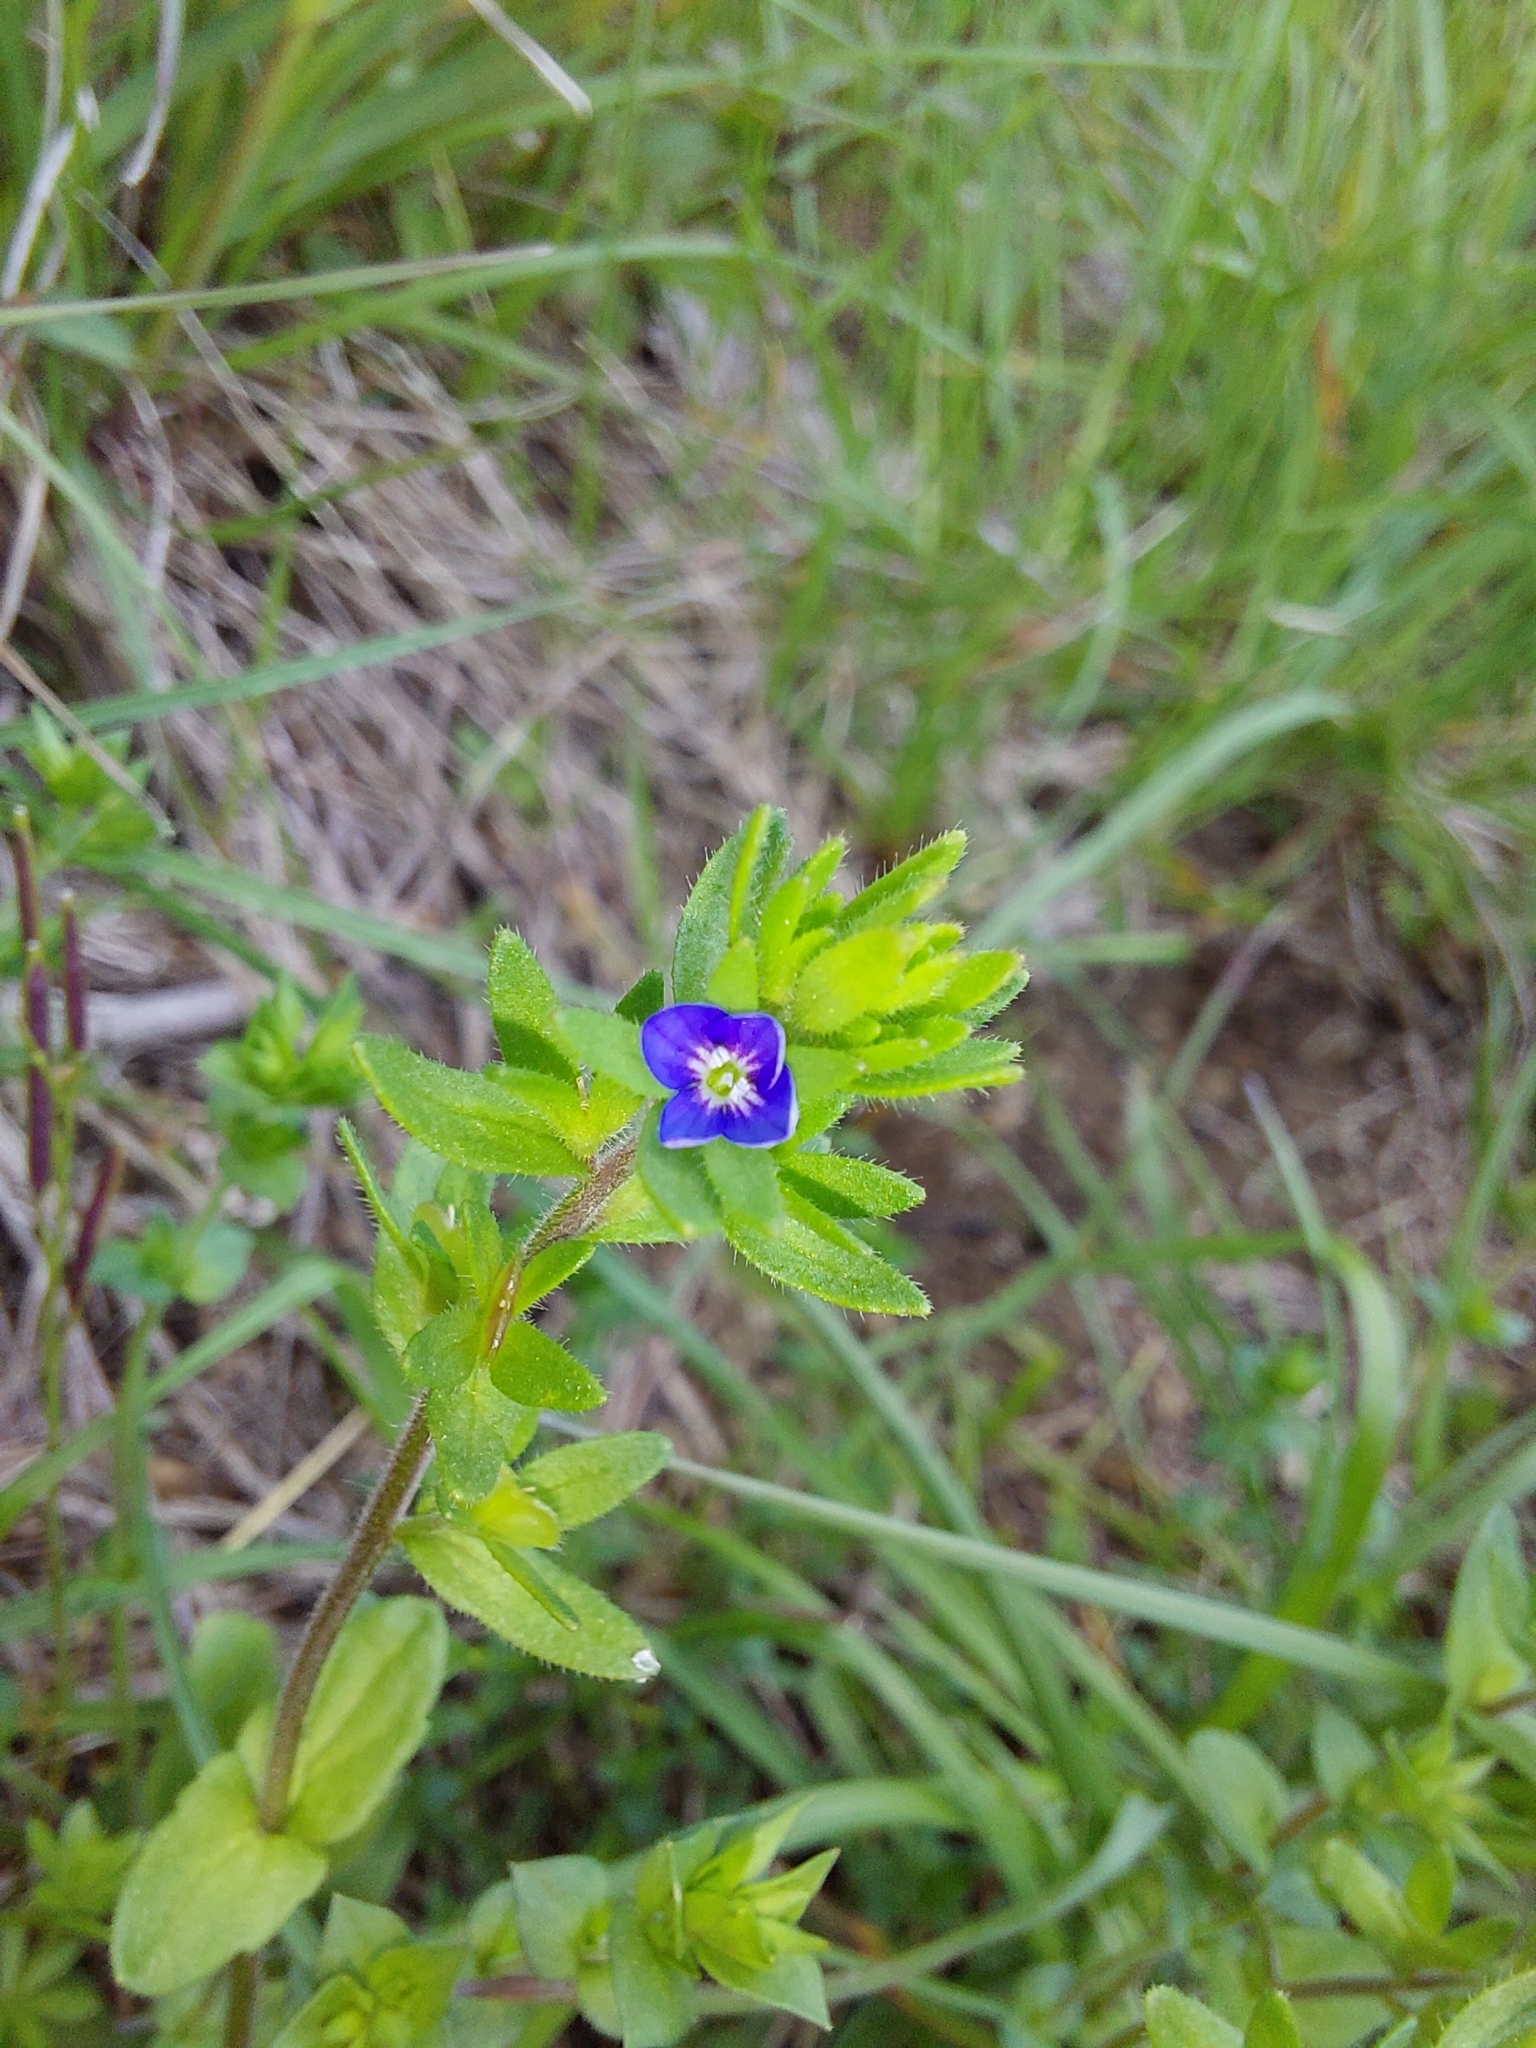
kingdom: Plantae
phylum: Tracheophyta
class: Magnoliopsida
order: Lamiales
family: Plantaginaceae
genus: Veronica
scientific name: Veronica arvensis
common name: Corn speedwell
